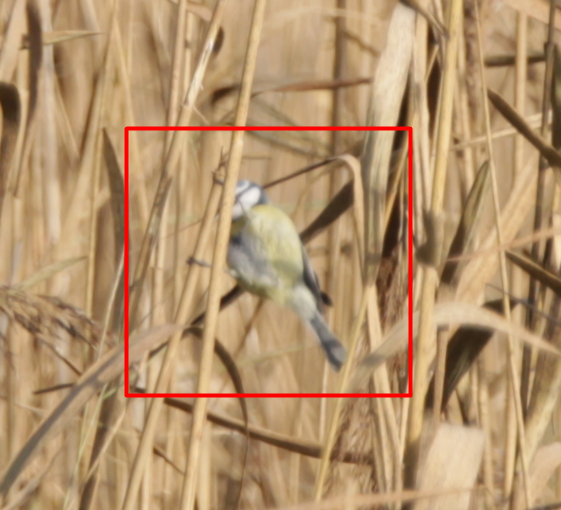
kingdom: Animalia
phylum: Chordata
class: Aves
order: Passeriformes
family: Paridae
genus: Cyanistes
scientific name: Cyanistes caeruleus
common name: Eurasian blue tit
